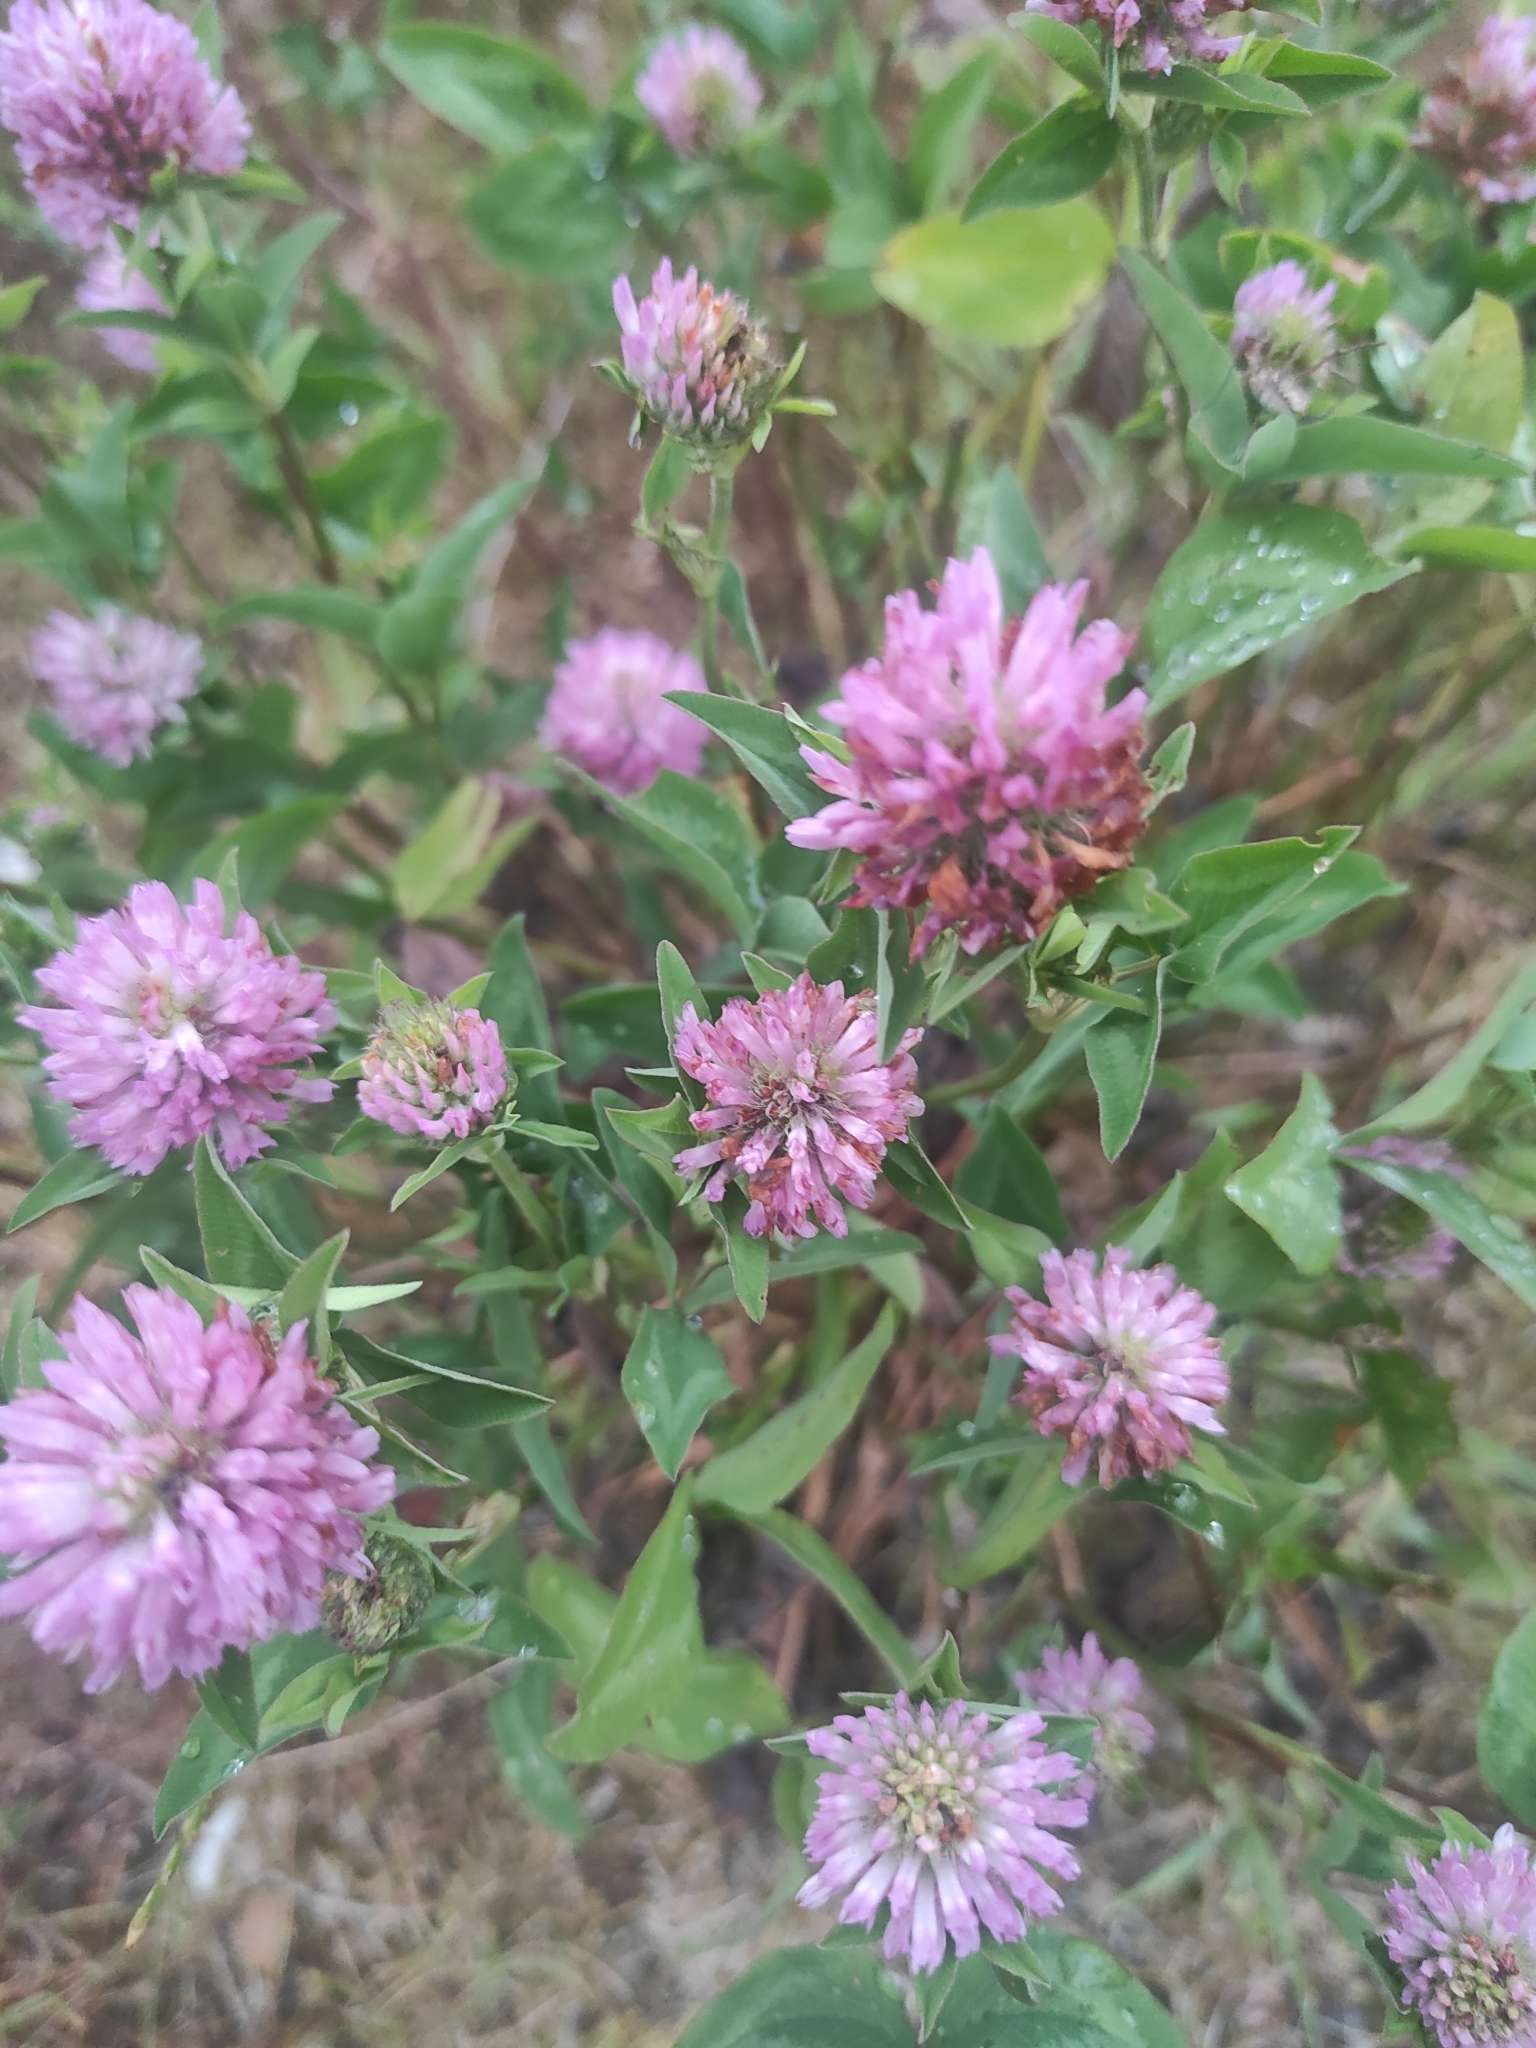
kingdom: Plantae
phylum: Tracheophyta
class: Magnoliopsida
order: Fabales
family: Fabaceae
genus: Trifolium
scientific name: Trifolium pratense
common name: Red clover
